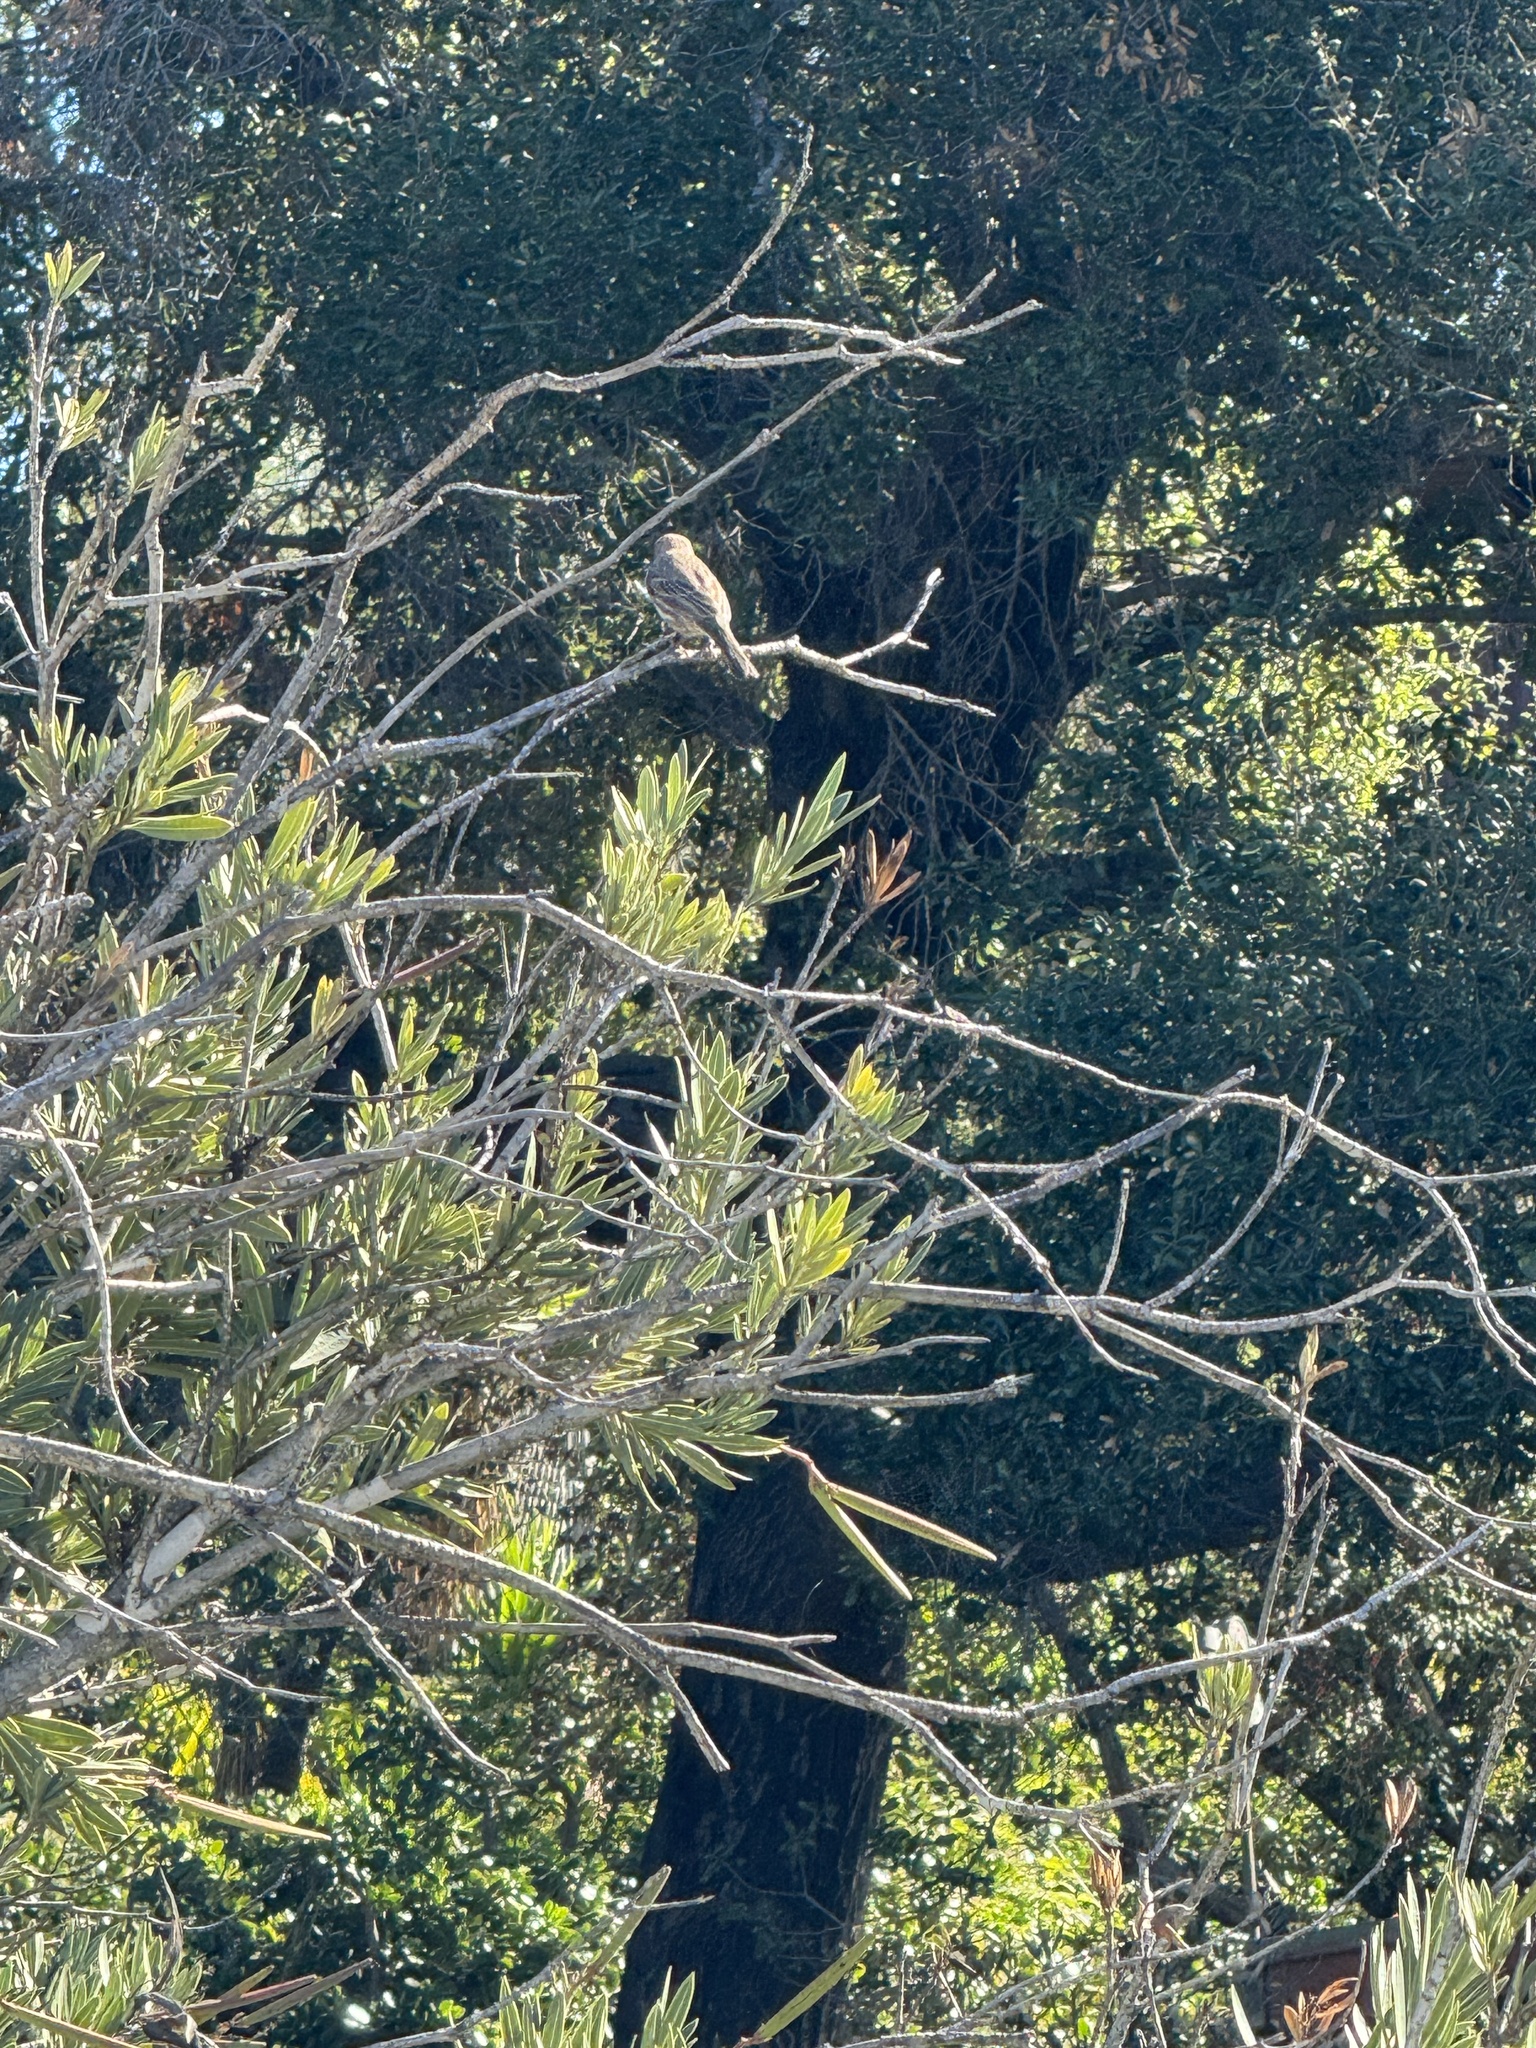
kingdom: Animalia
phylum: Chordata
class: Aves
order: Passeriformes
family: Fringillidae
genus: Haemorhous
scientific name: Haemorhous mexicanus
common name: House finch
